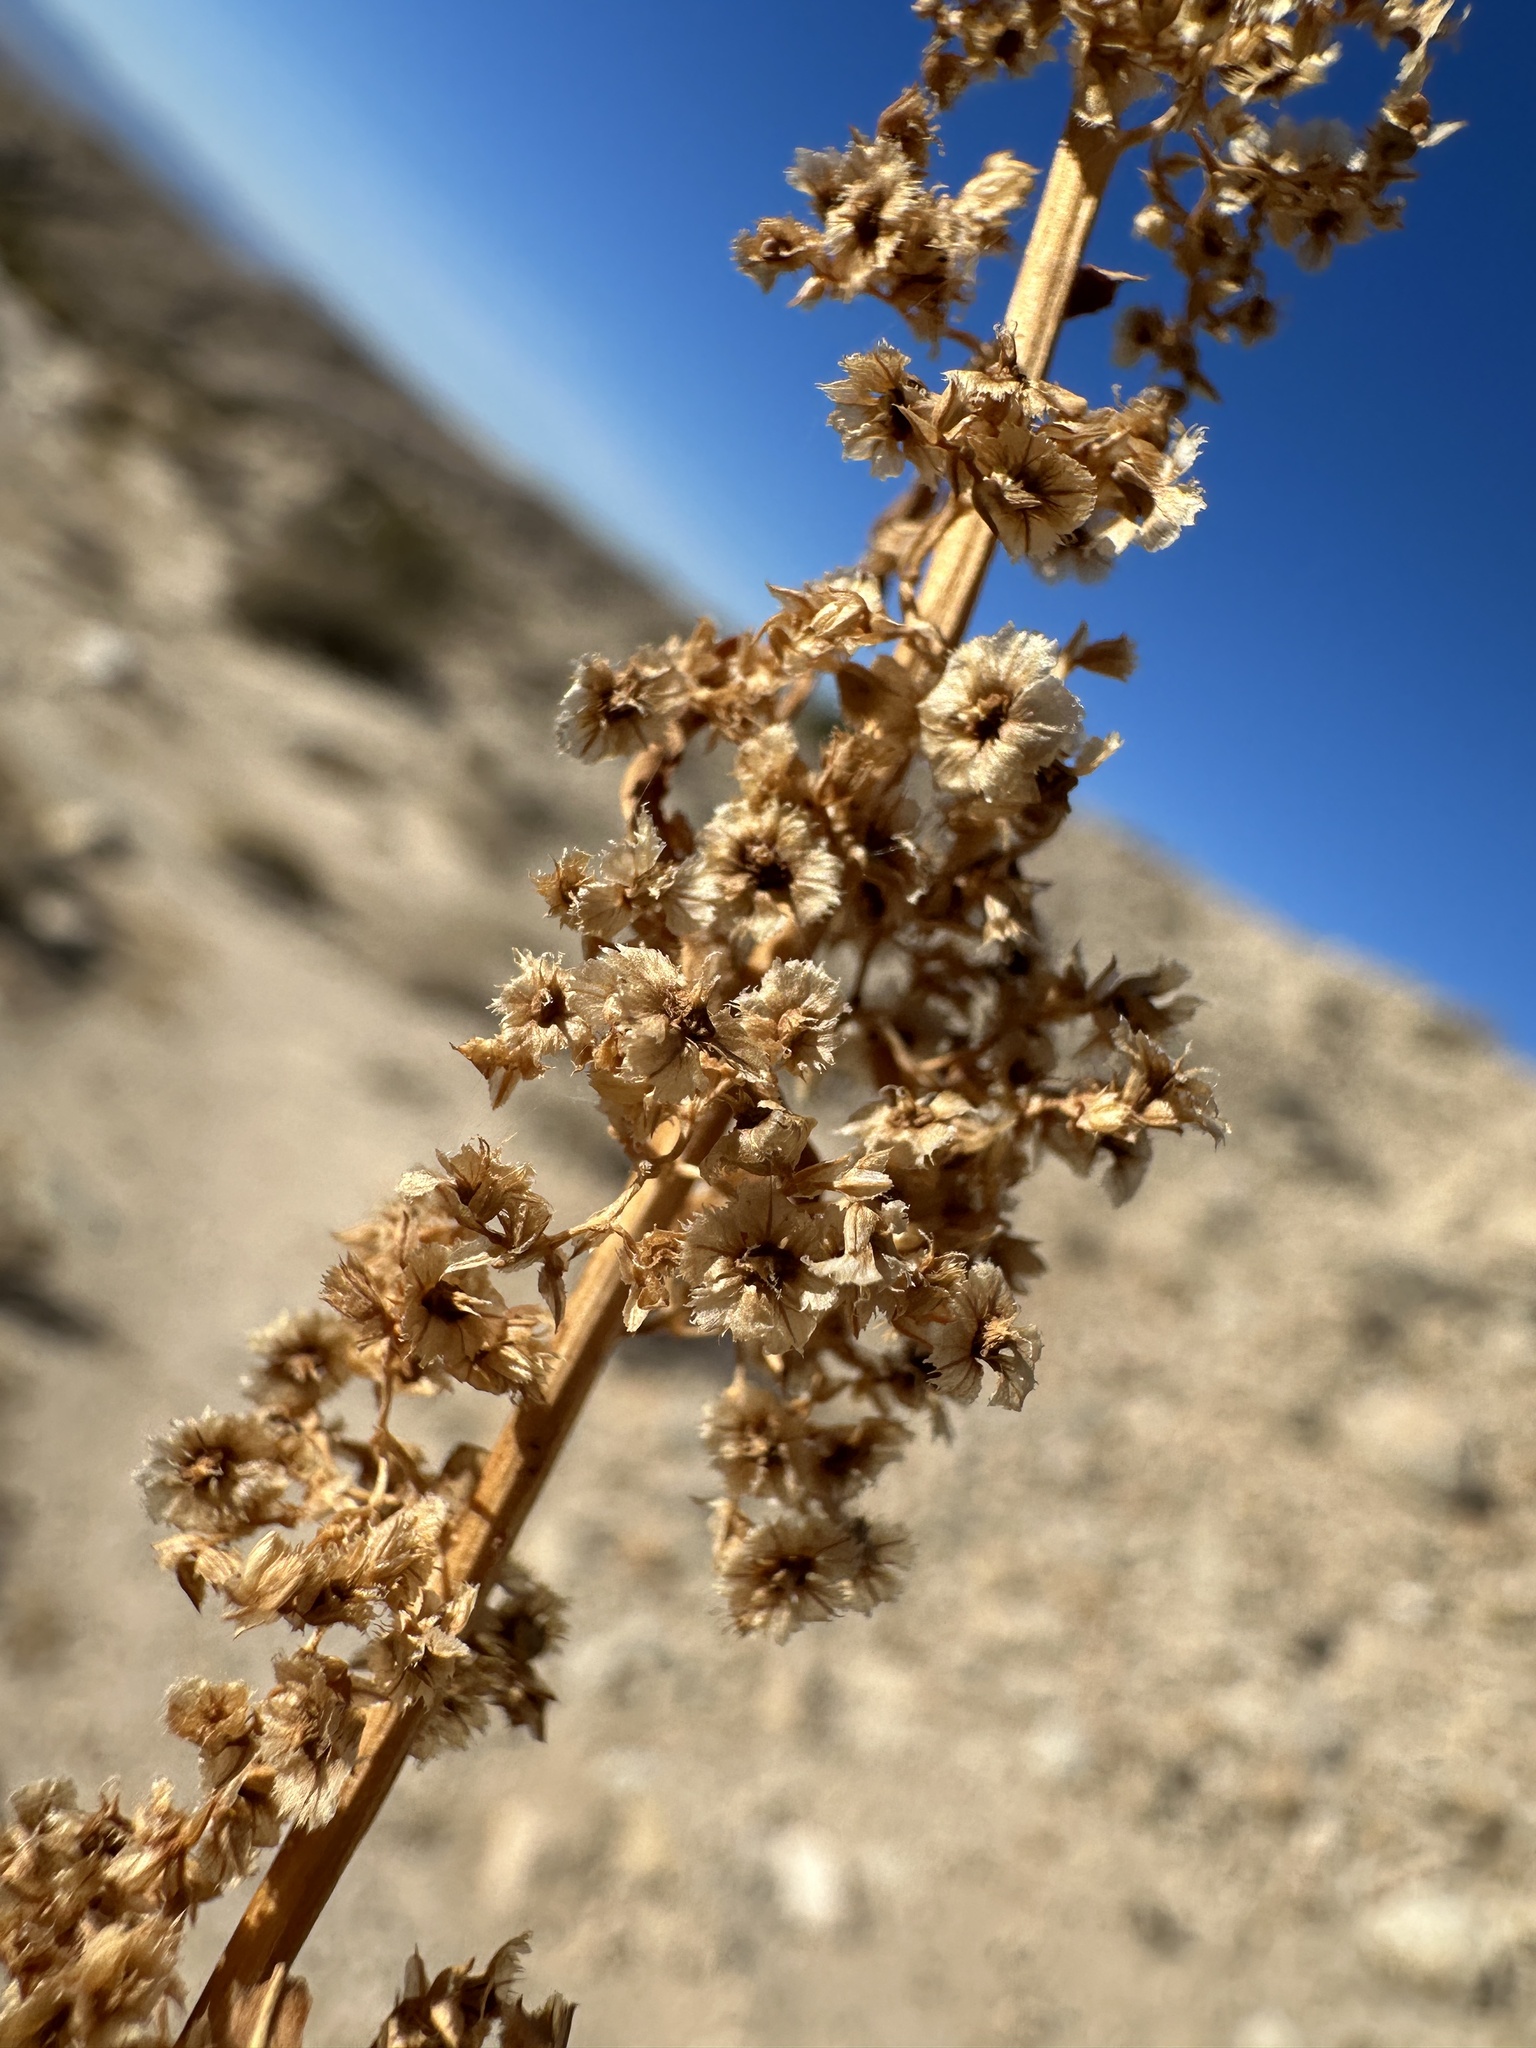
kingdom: Plantae
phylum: Tracheophyta
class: Magnoliopsida
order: Caryophyllales
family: Amaranthaceae
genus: Amaranthus
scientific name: Amaranthus fimbriatus
